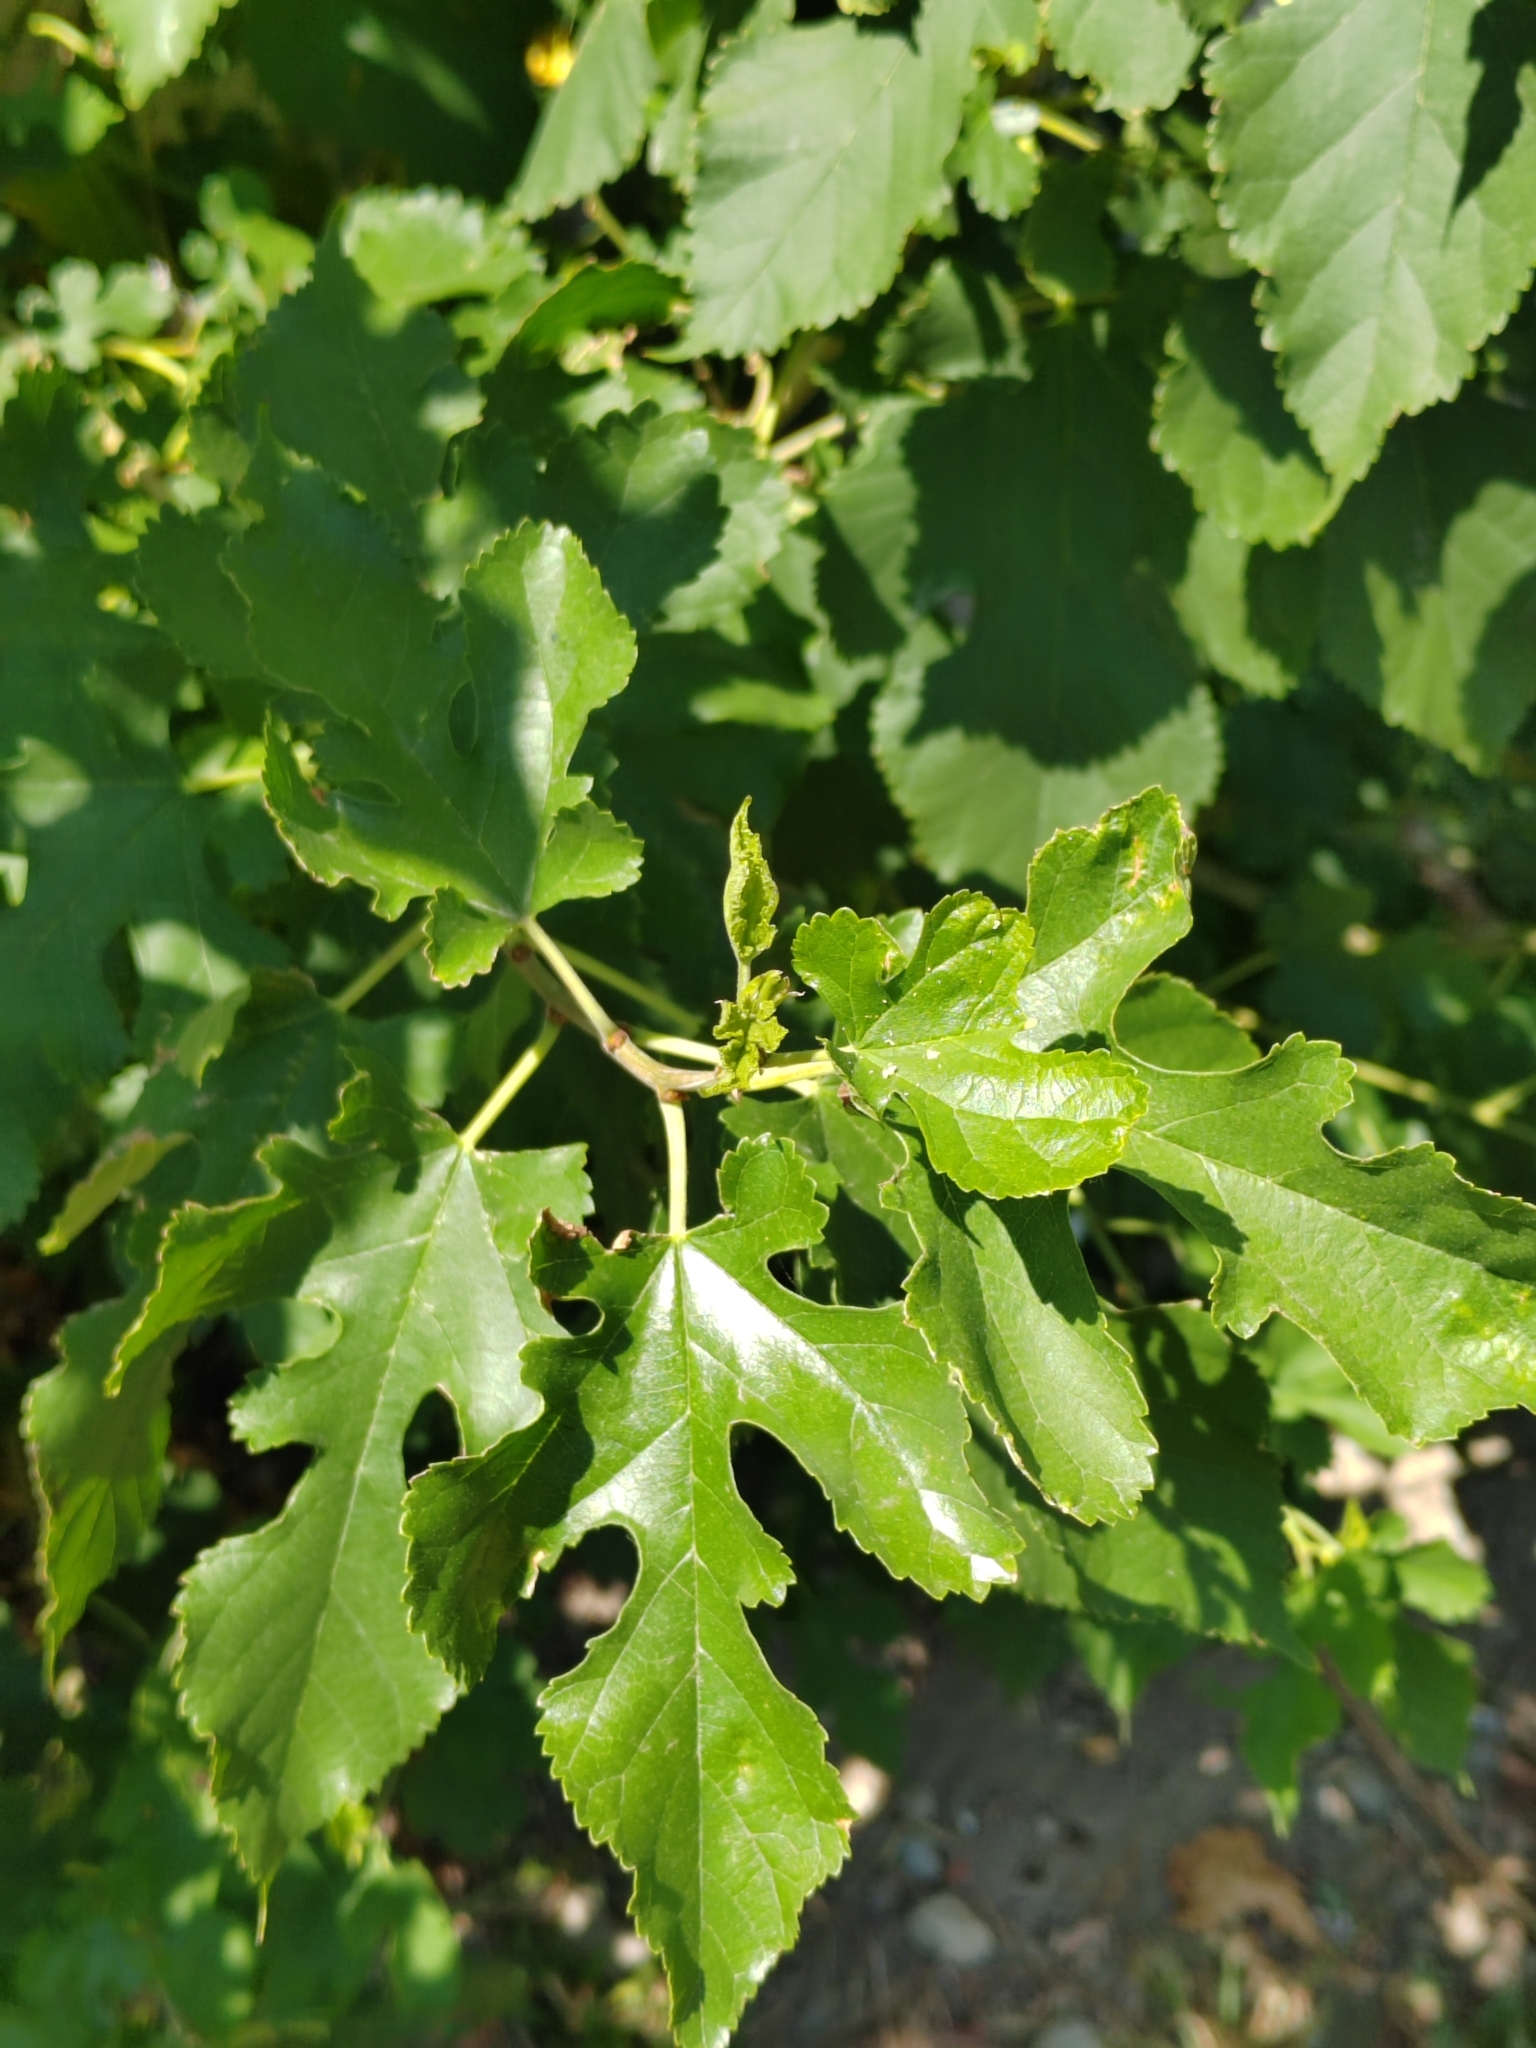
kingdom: Plantae
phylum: Tracheophyta
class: Magnoliopsida
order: Rosales
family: Moraceae
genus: Morus
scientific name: Morus alba
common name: White mulberry
